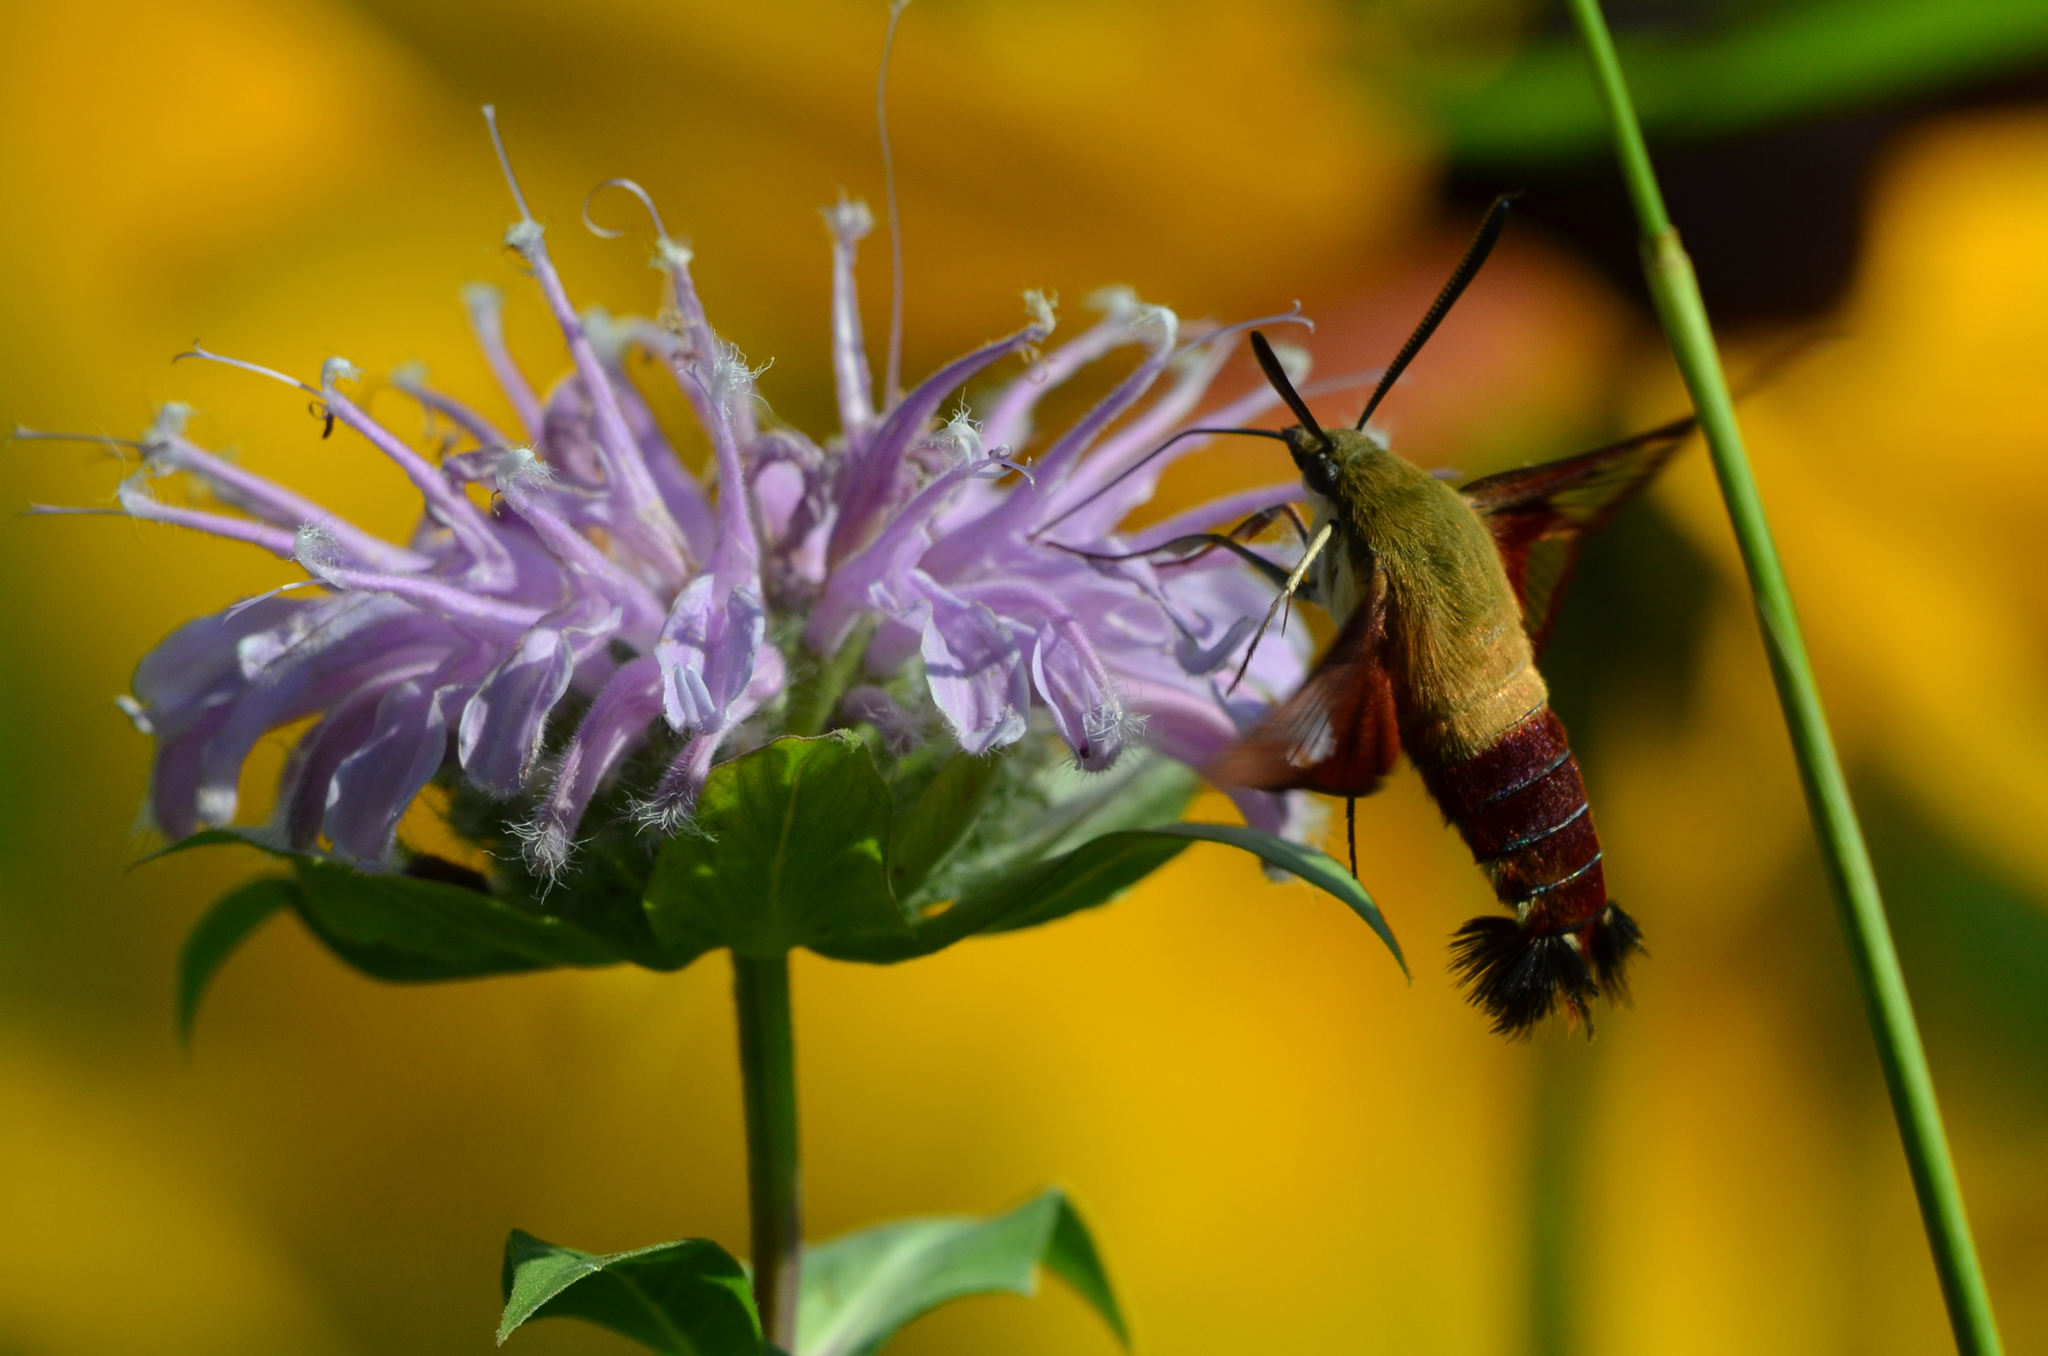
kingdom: Animalia
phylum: Arthropoda
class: Insecta
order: Lepidoptera
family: Sphingidae
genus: Hemaris
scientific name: Hemaris thysbe
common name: Common clear-wing
